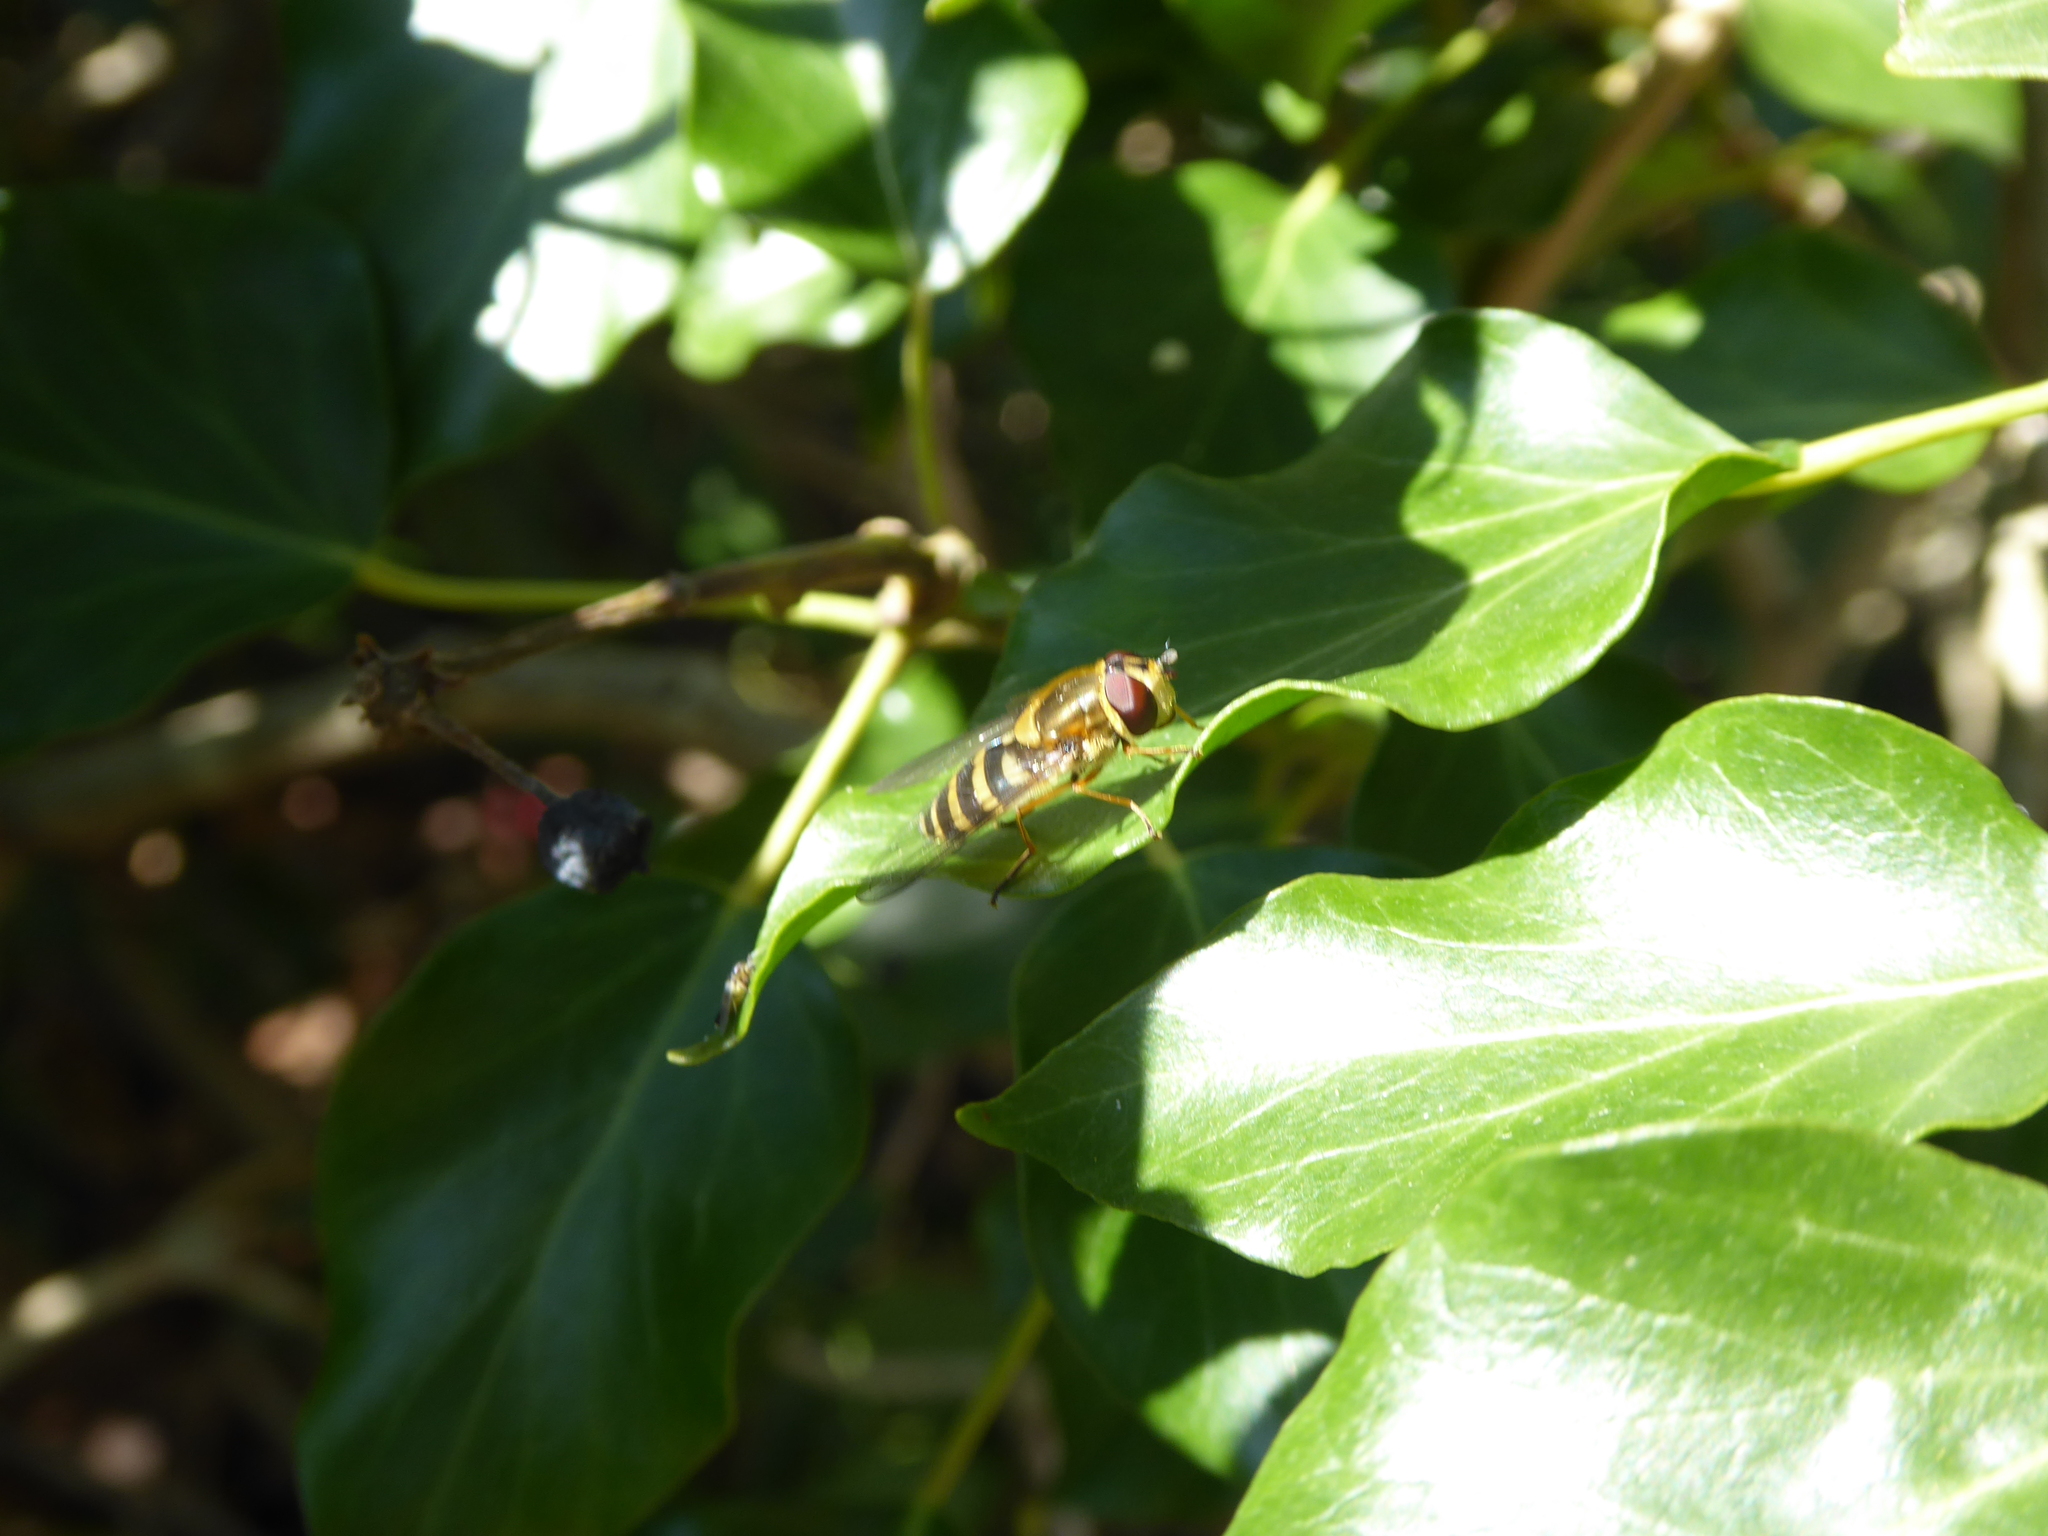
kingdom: Animalia
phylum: Arthropoda
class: Insecta
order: Diptera
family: Syrphidae
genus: Syrphus
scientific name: Syrphus ribesii
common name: Common flower fly
